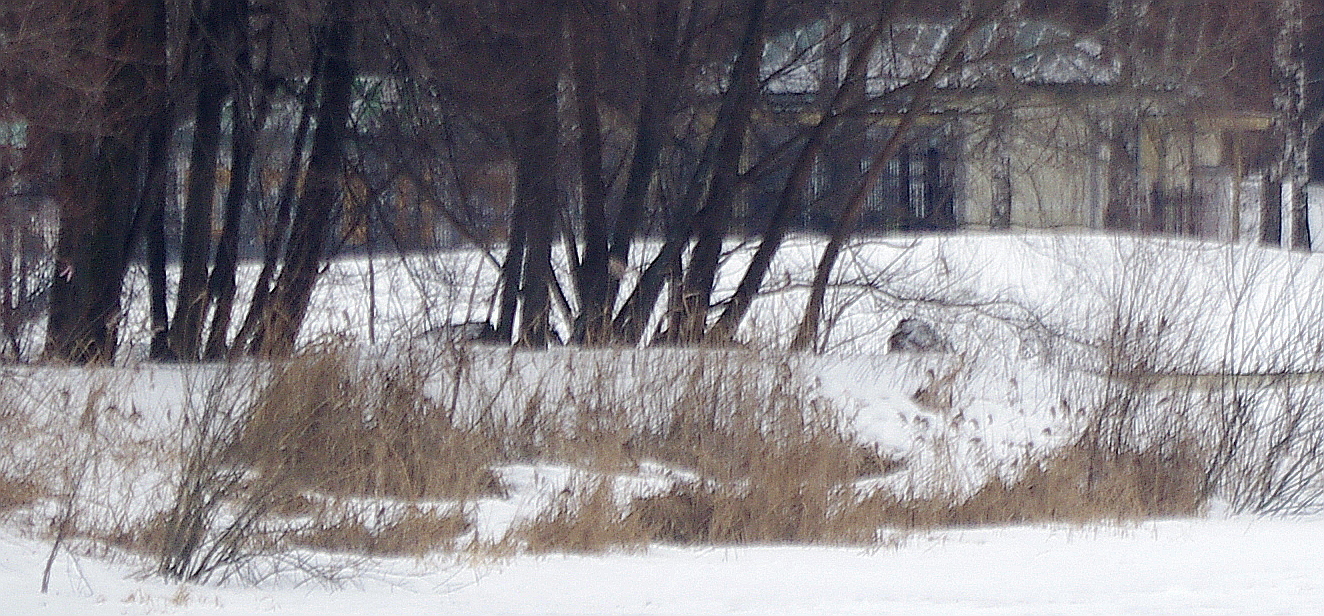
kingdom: Plantae
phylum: Tracheophyta
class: Liliopsida
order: Poales
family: Poaceae
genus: Phragmites
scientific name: Phragmites australis
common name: Common reed
